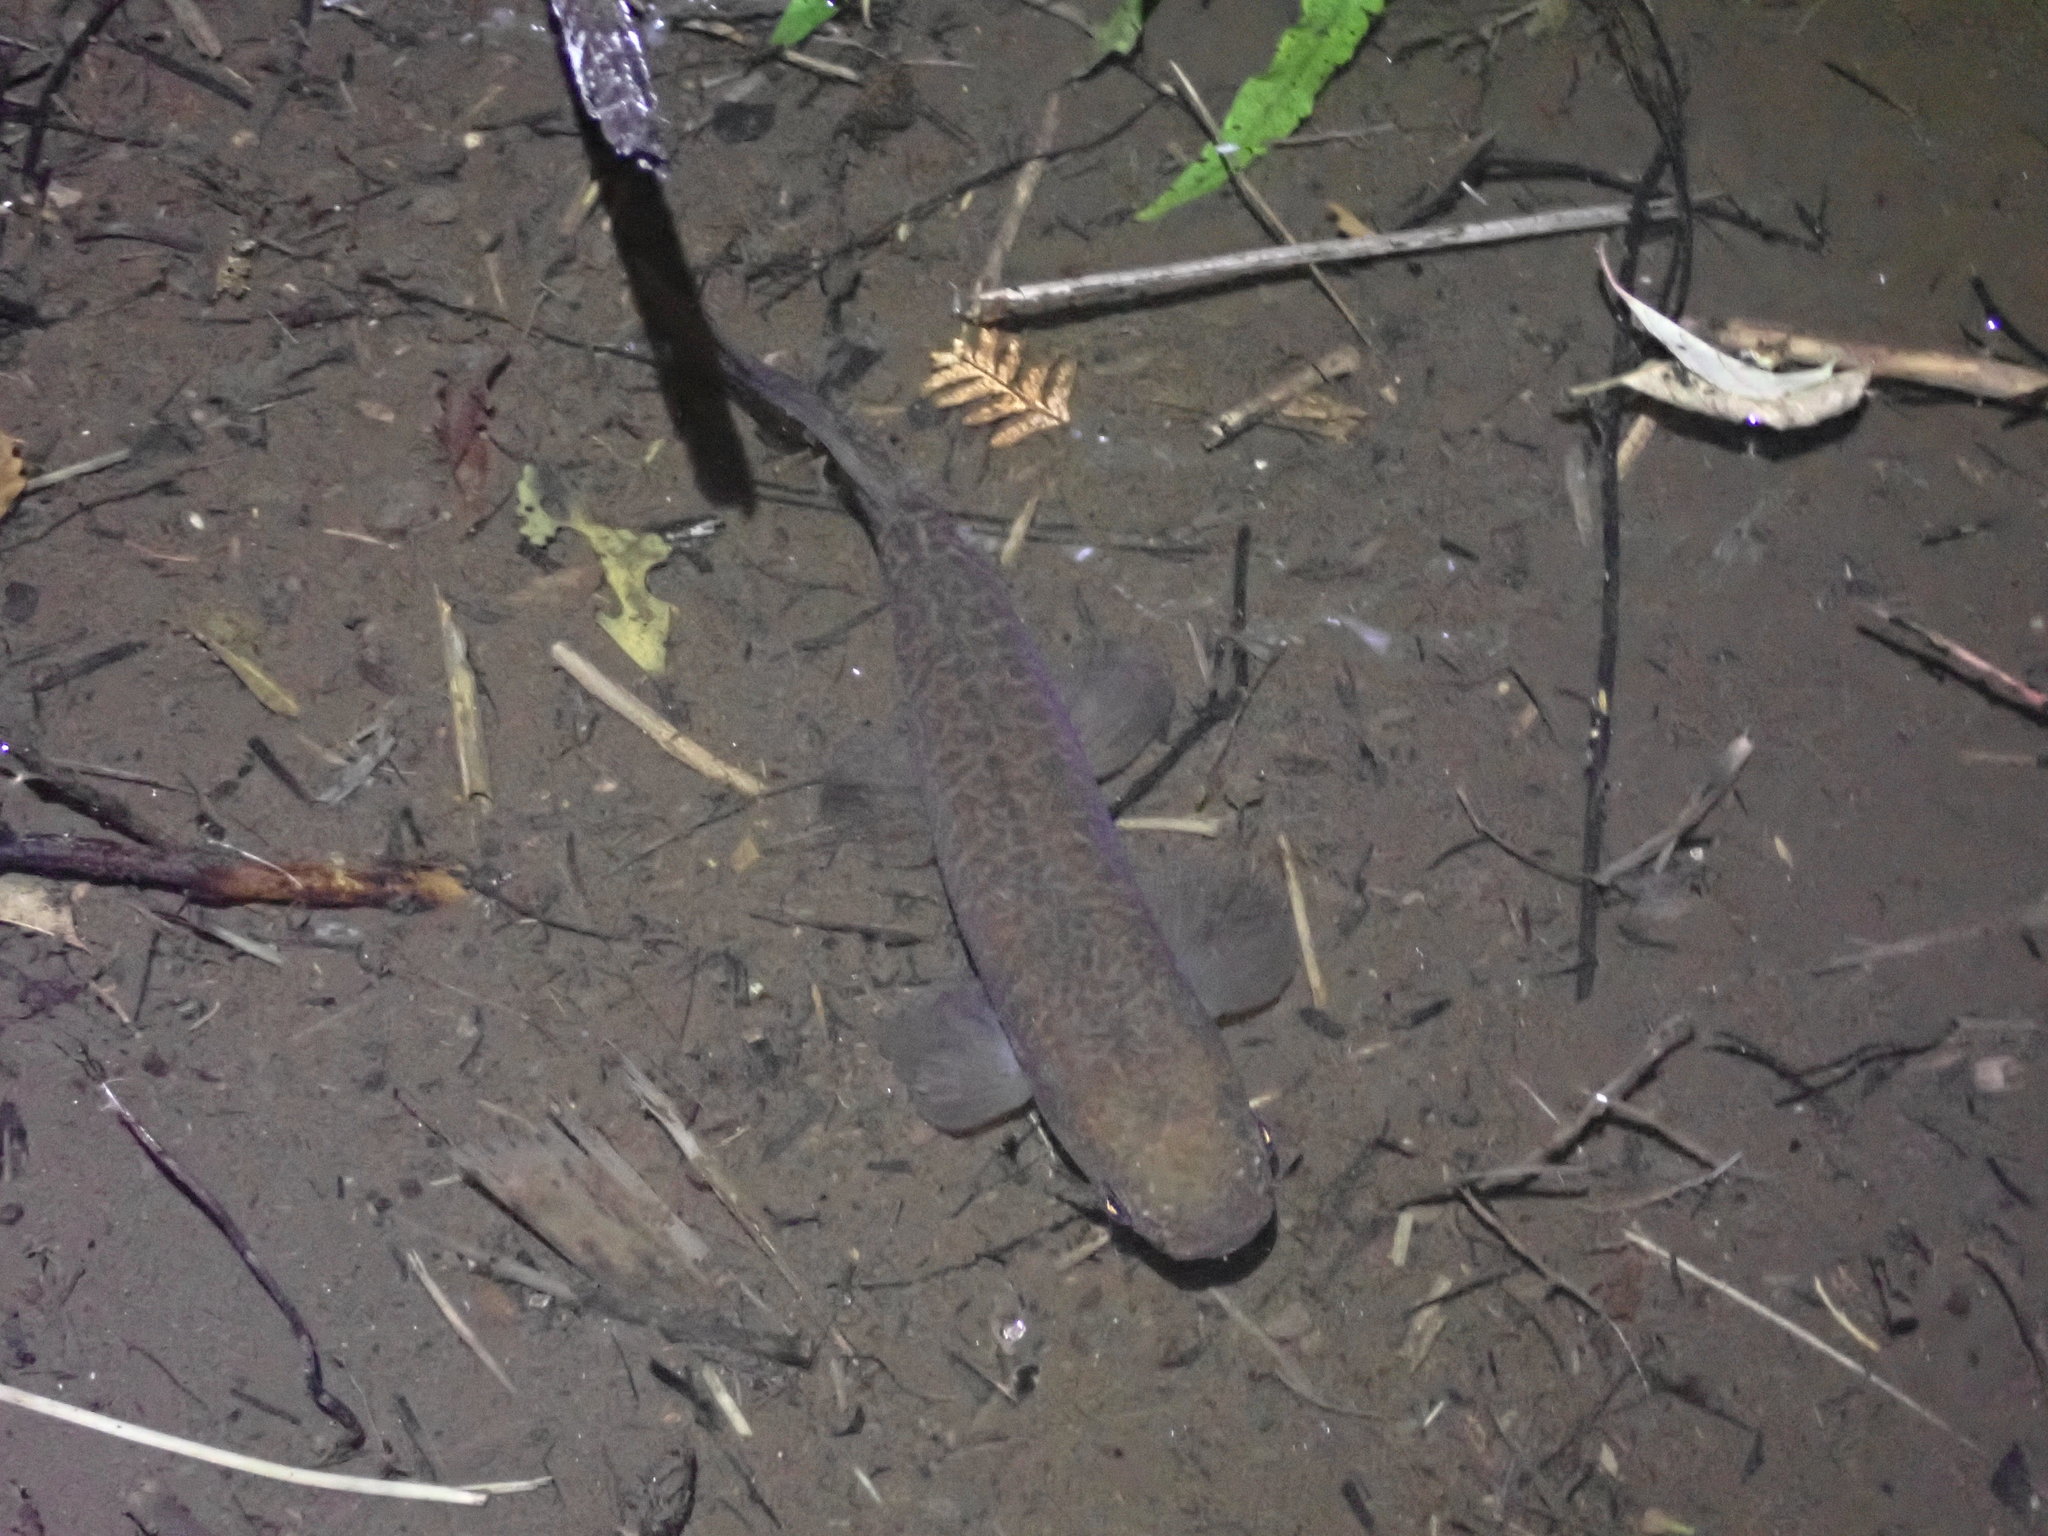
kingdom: Animalia
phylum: Chordata
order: Osmeriformes
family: Galaxiidae
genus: Galaxias
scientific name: Galaxias fasciatus
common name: Banded kokopu
